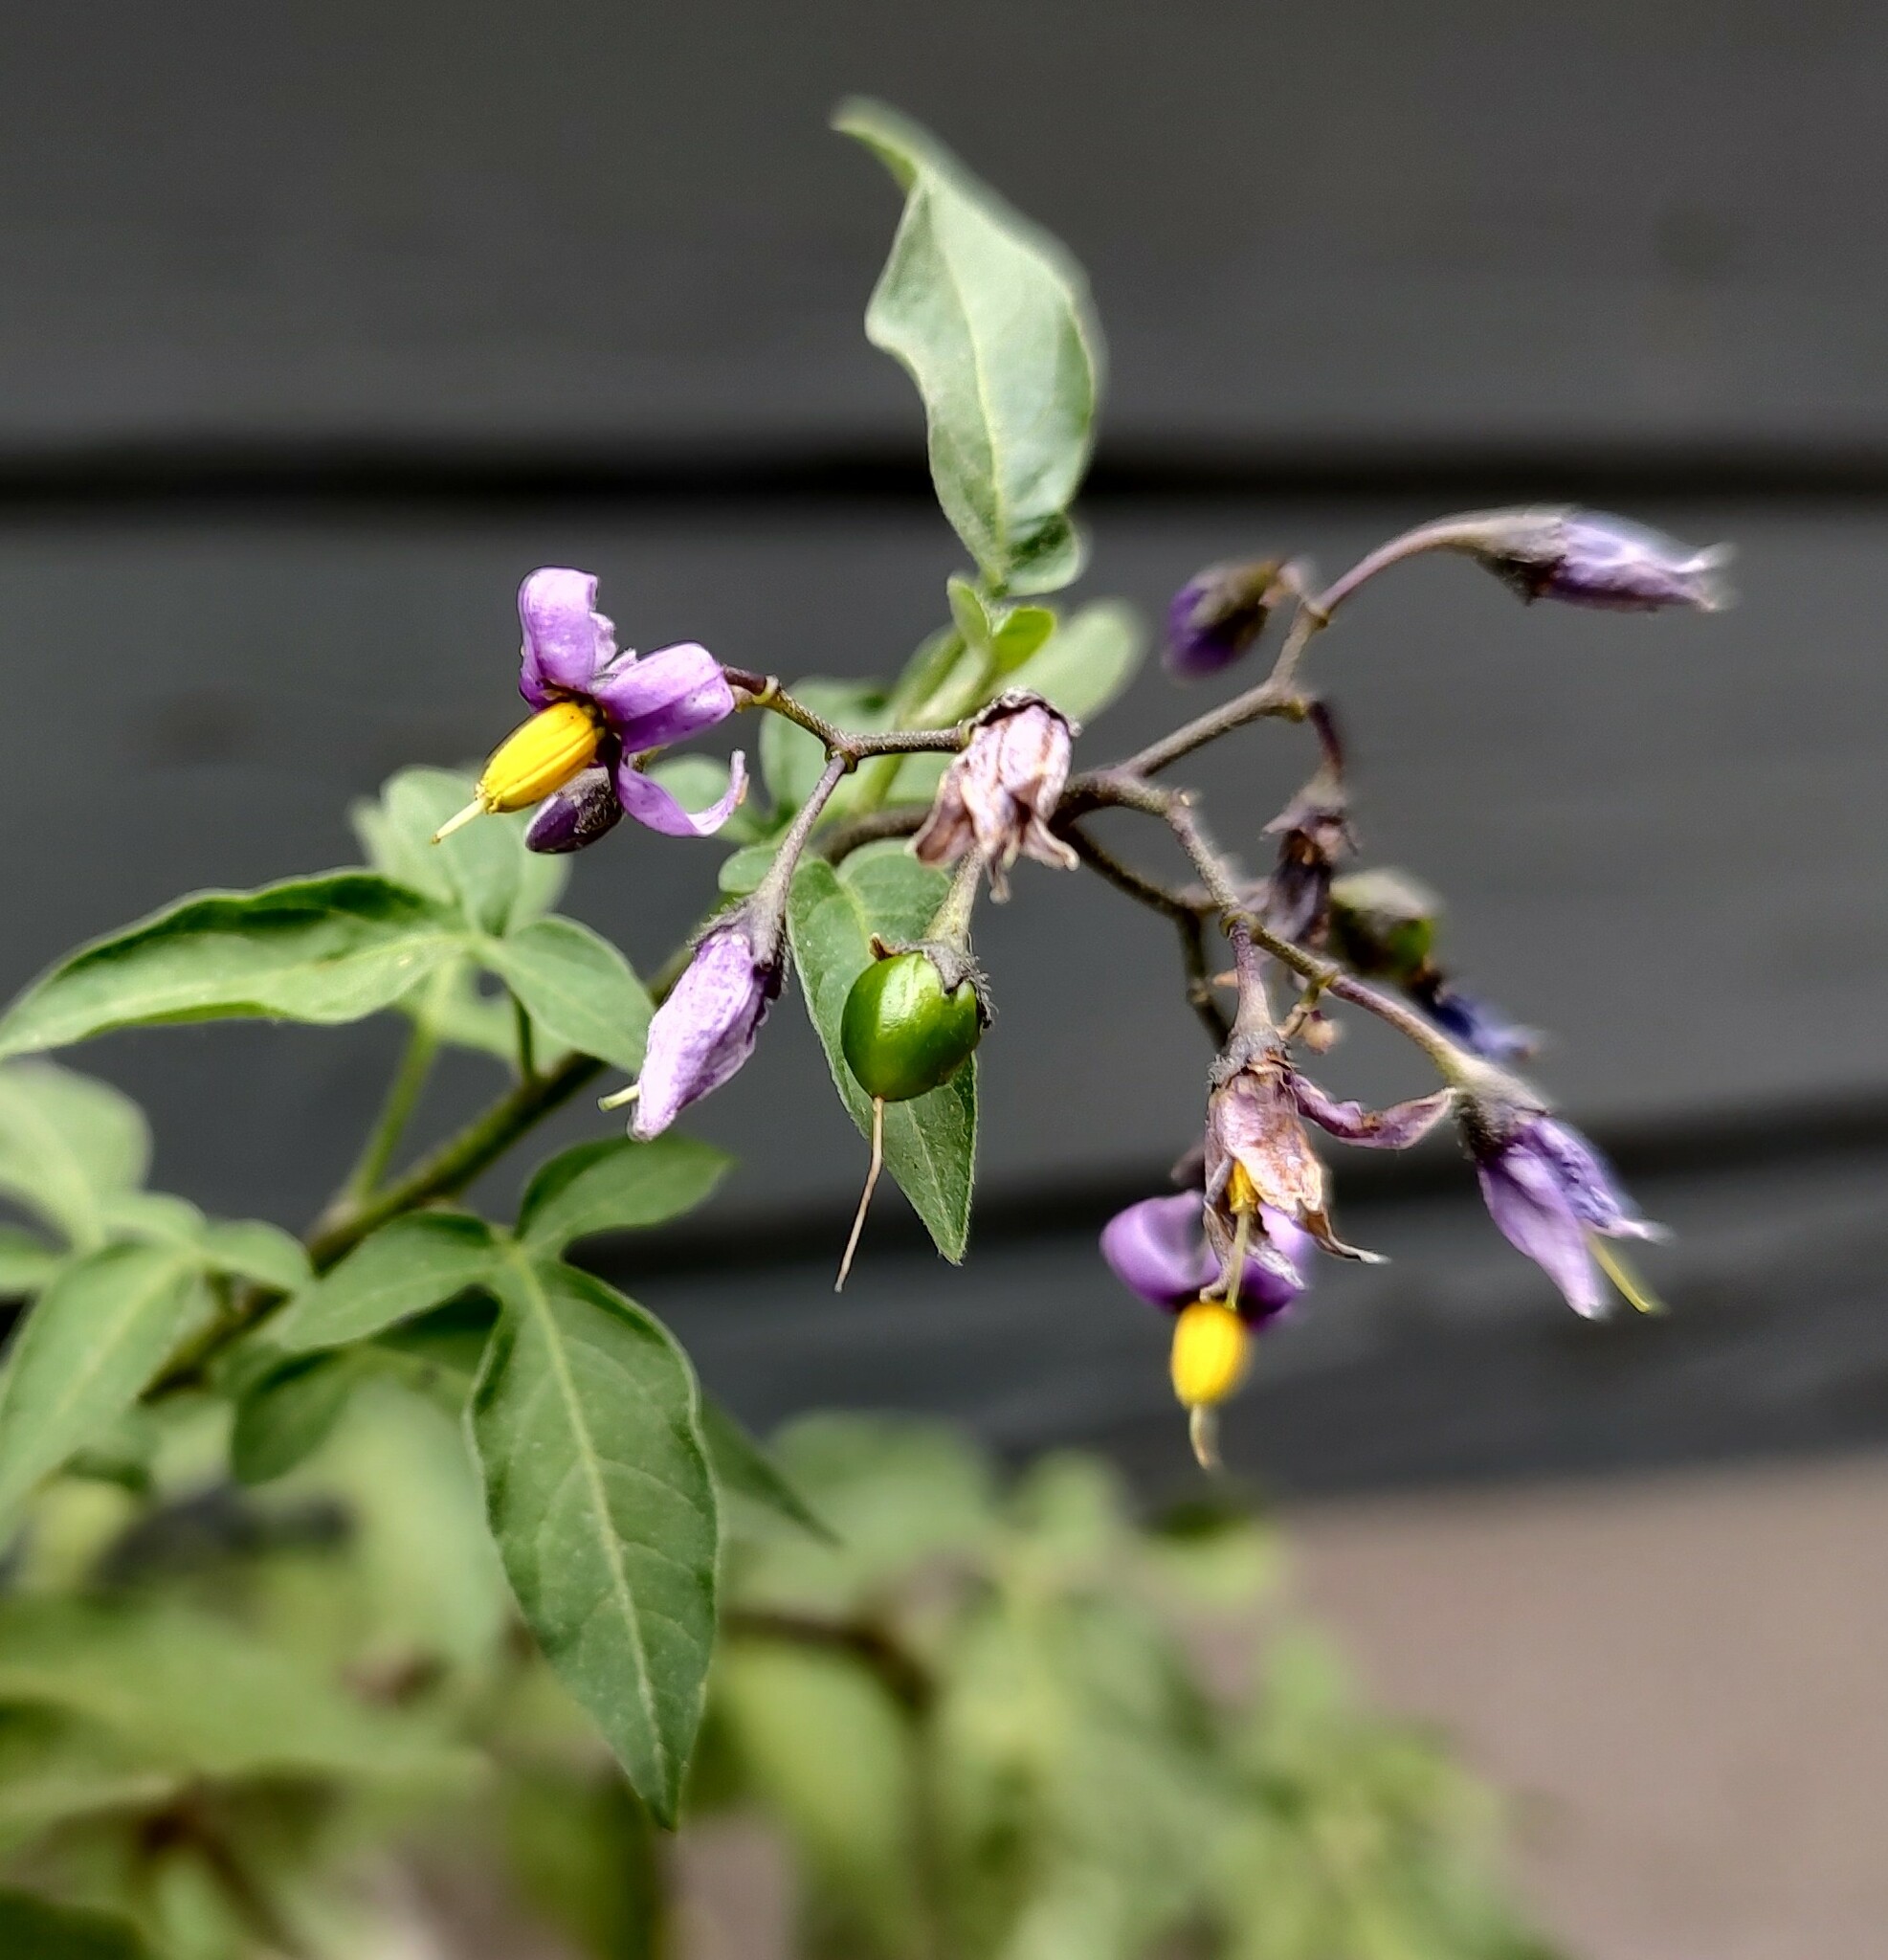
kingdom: Plantae
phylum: Tracheophyta
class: Magnoliopsida
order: Solanales
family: Solanaceae
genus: Solanum
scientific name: Solanum dulcamara
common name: Climbing nightshade
